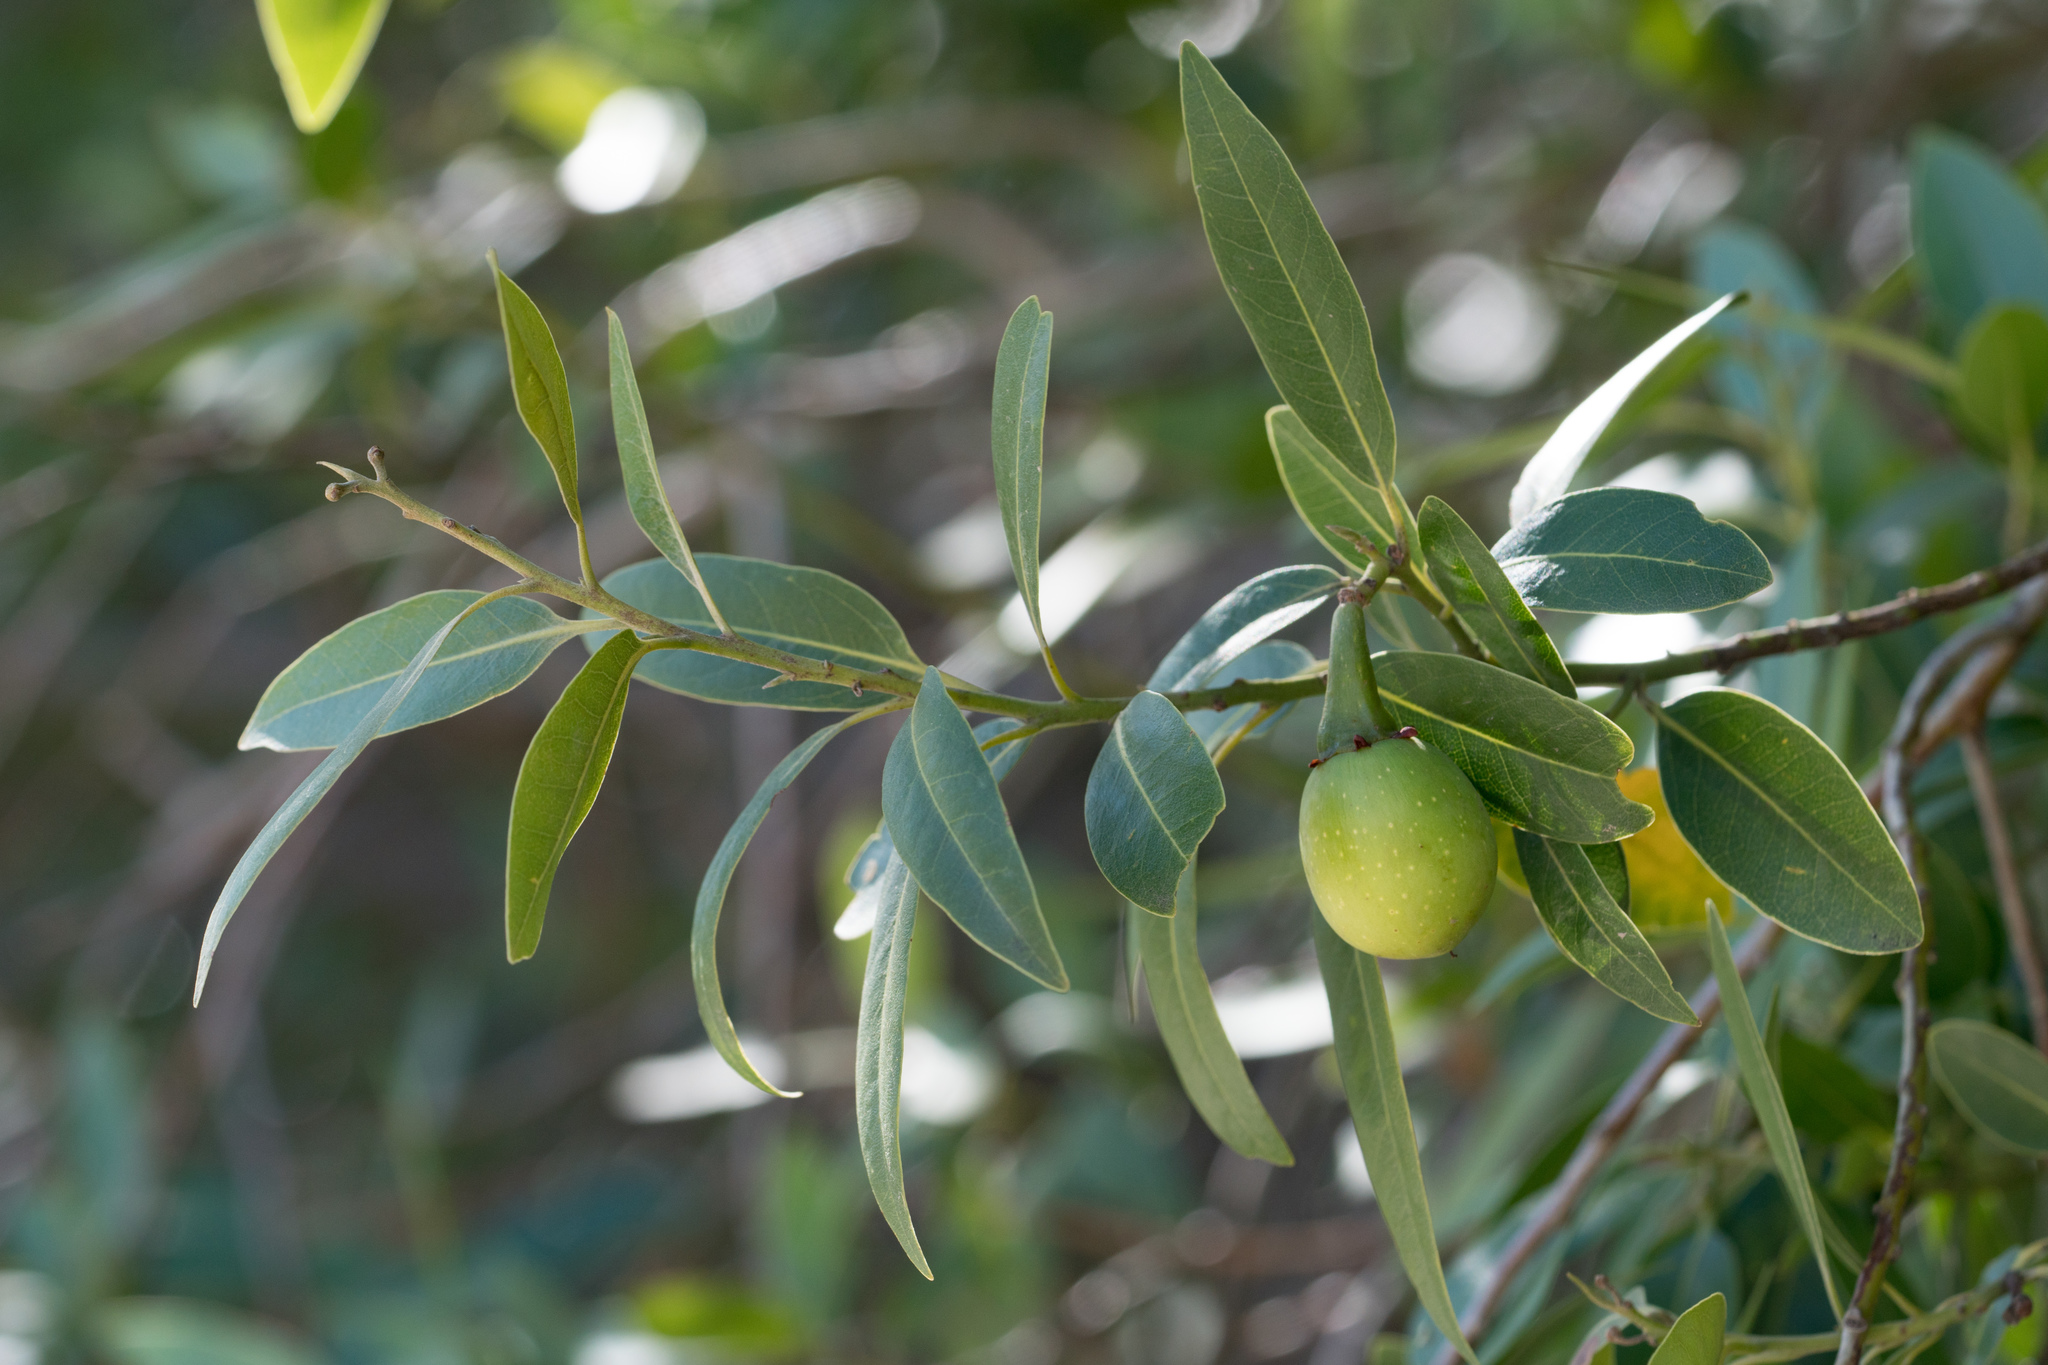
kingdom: Plantae
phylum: Tracheophyta
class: Magnoliopsida
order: Laurales
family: Lauraceae
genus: Umbellularia
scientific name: Umbellularia californica
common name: California bay
